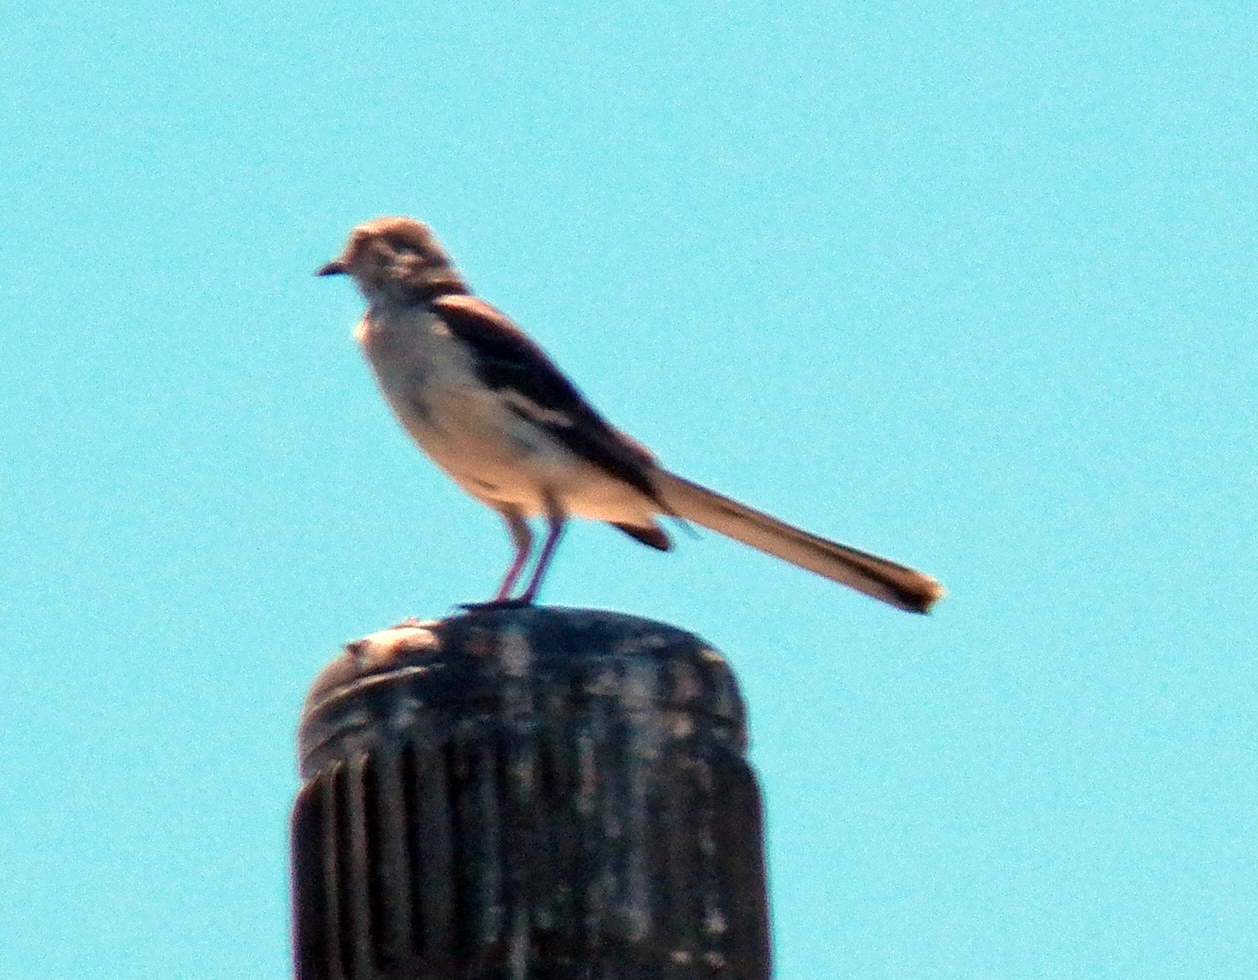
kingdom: Animalia
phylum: Chordata
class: Aves
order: Passeriformes
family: Mimidae
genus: Mimus
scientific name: Mimus polyglottos
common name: Northern mockingbird
